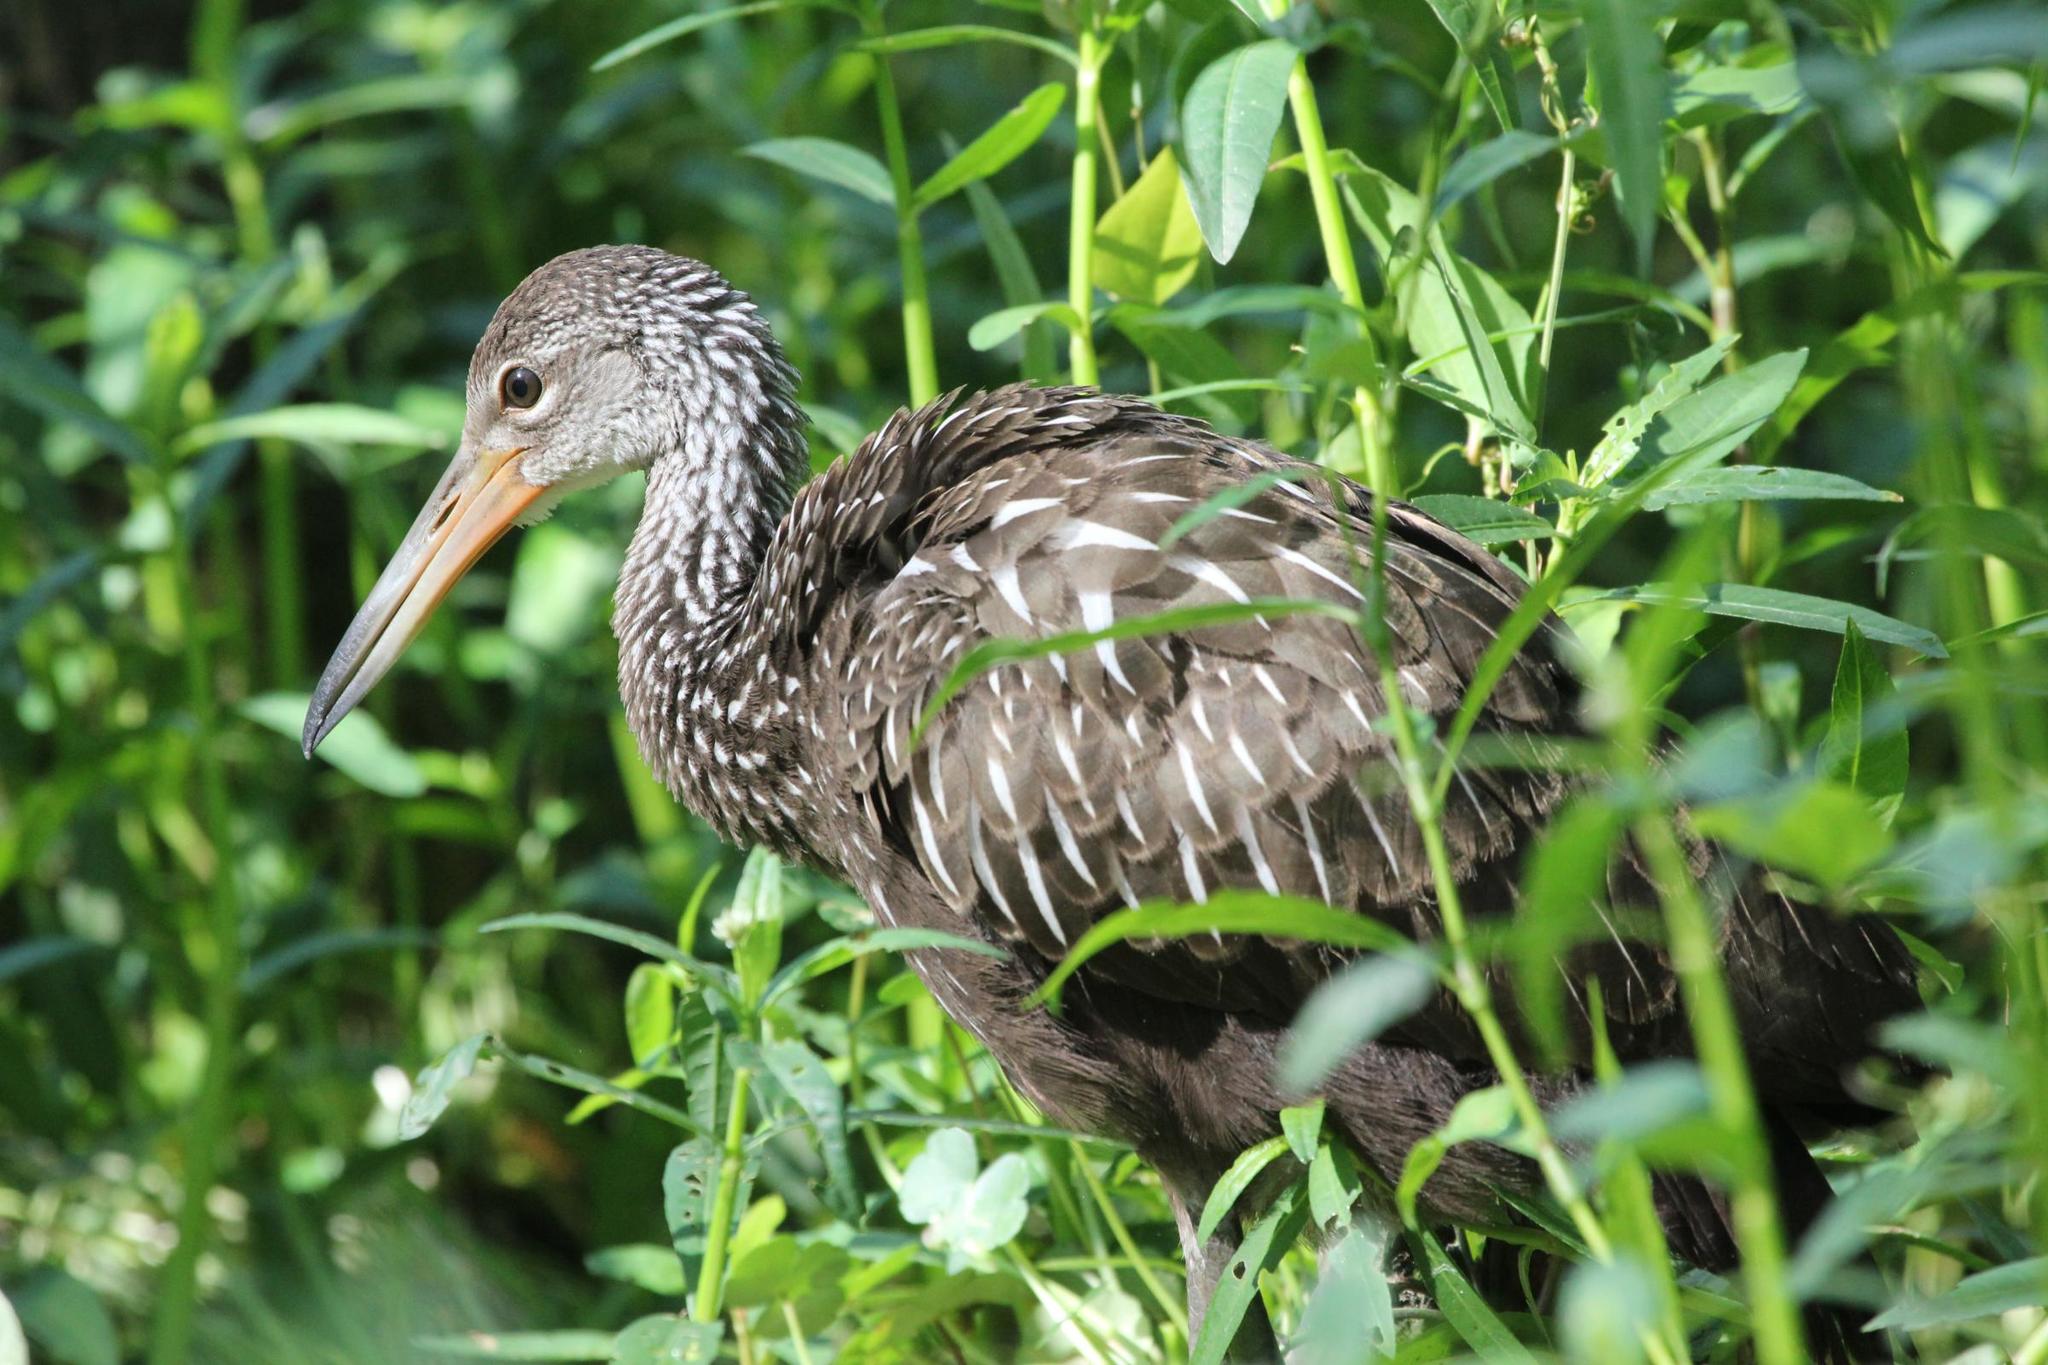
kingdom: Animalia
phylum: Chordata
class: Aves
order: Gruiformes
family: Aramidae
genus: Aramus
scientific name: Aramus guarauna
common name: Limpkin
